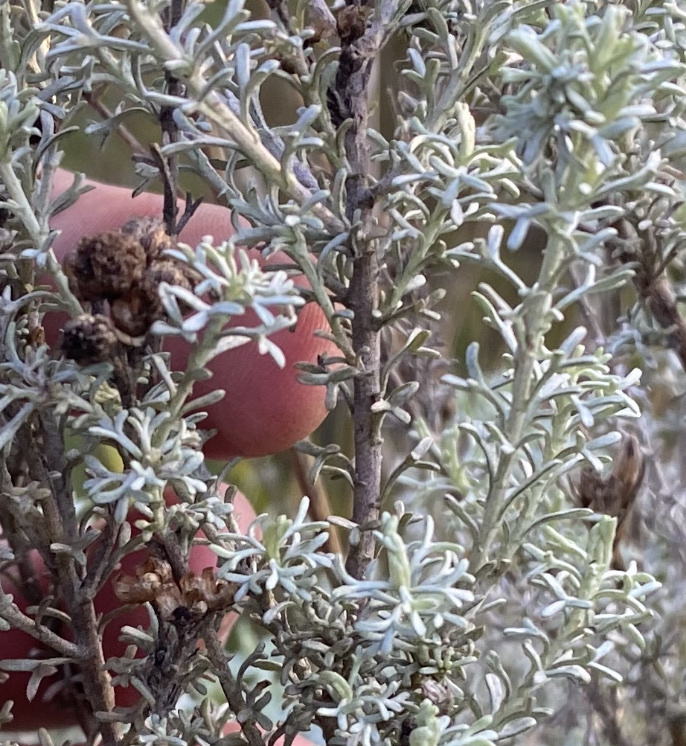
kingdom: Plantae
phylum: Tracheophyta
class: Magnoliopsida
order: Asterales
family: Asteraceae
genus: Pentzia
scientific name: Pentzia trifida
